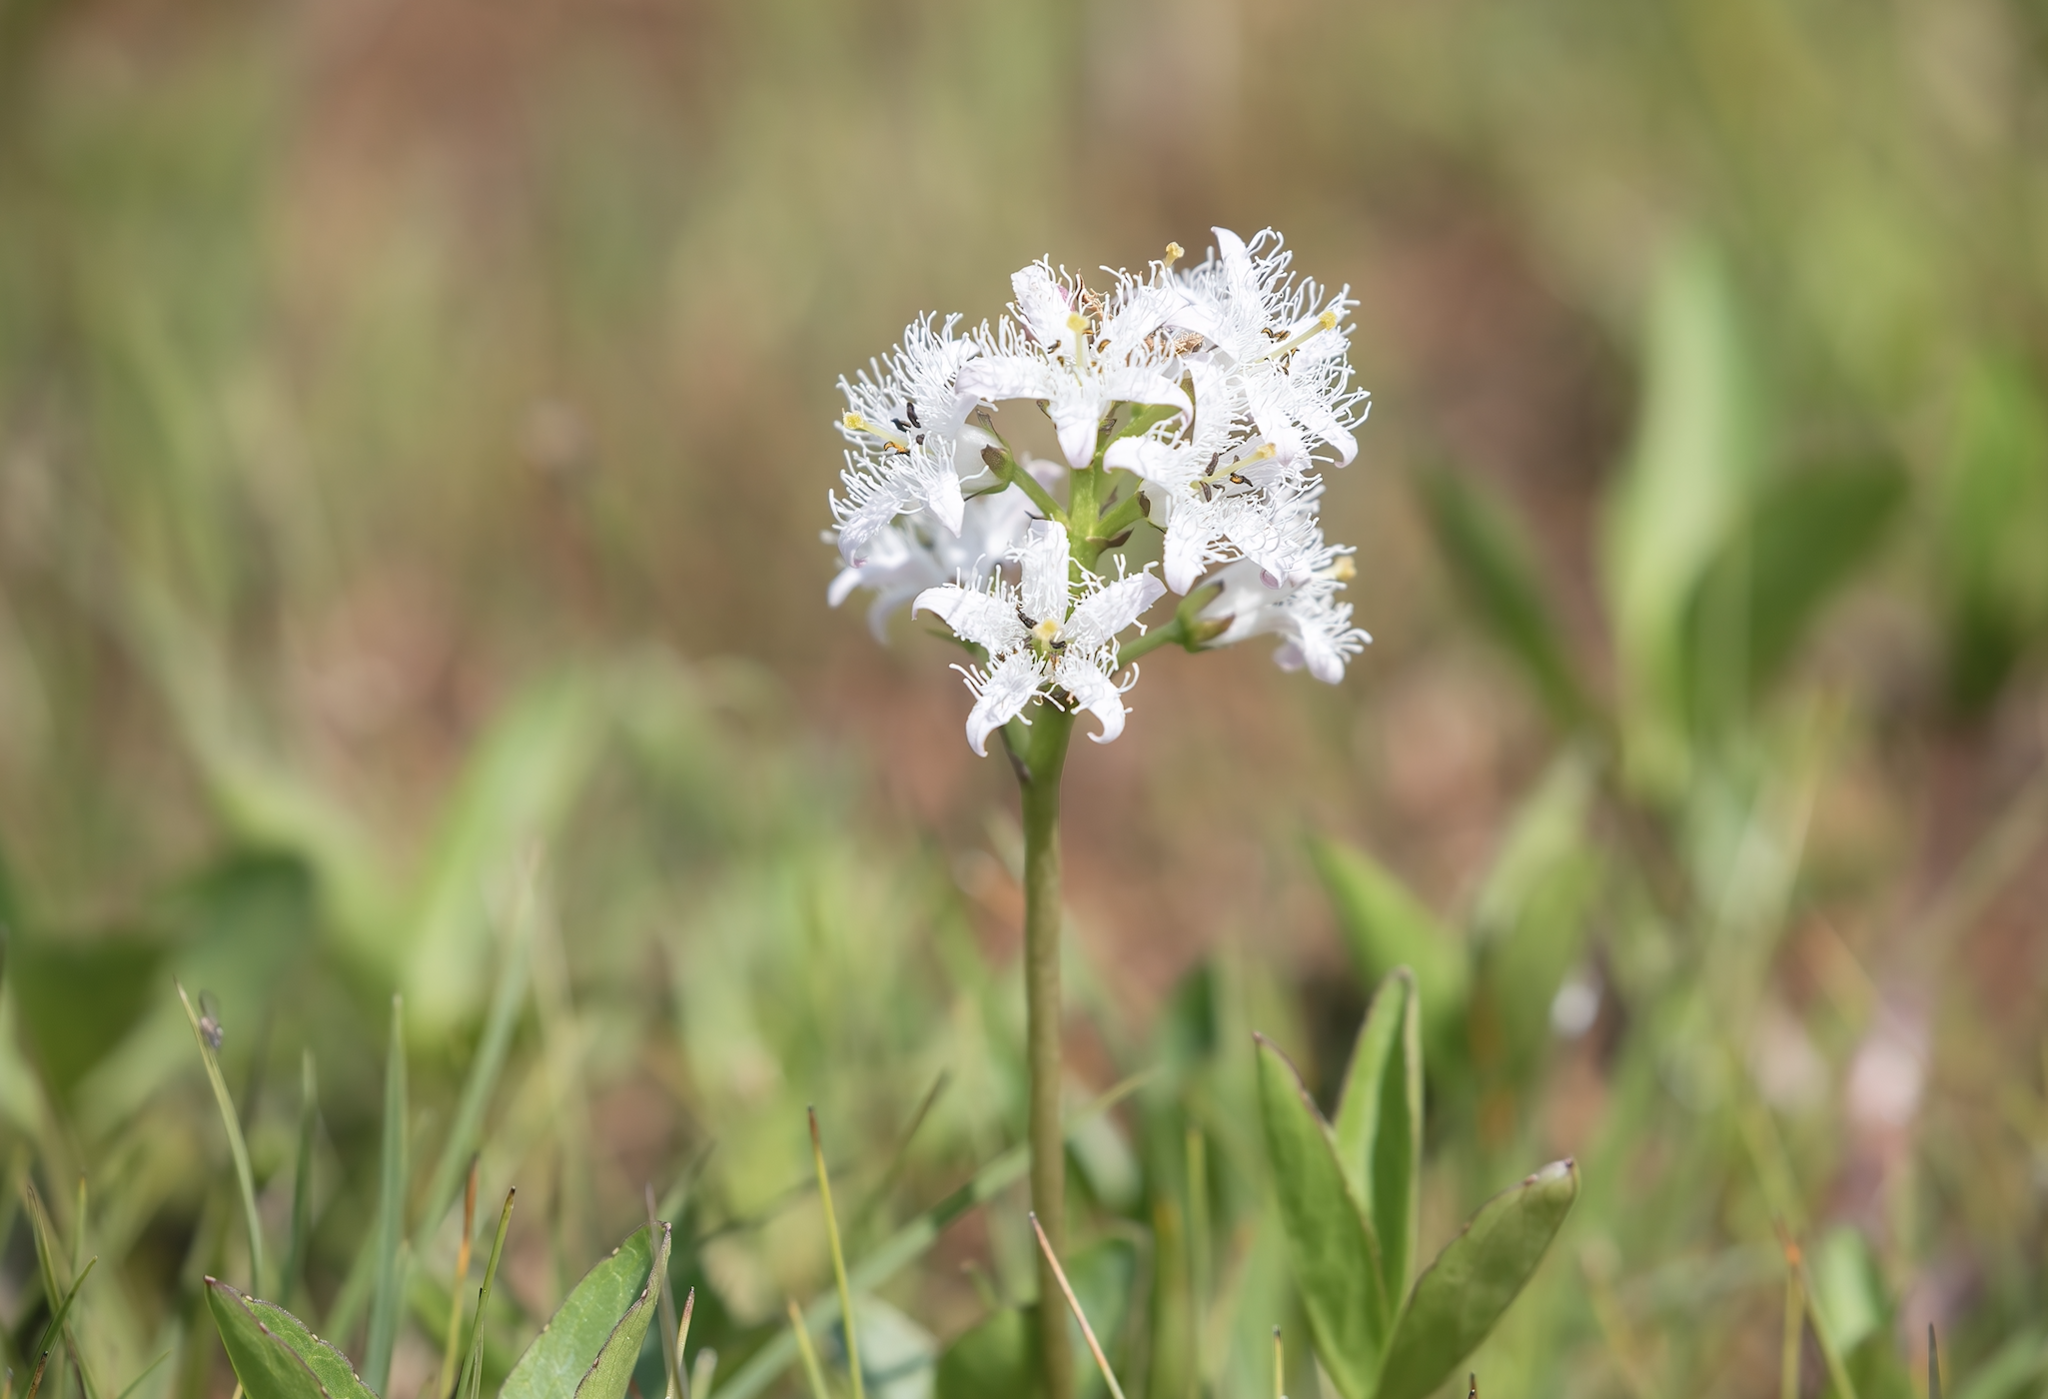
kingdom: Plantae
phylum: Tracheophyta
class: Magnoliopsida
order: Asterales
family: Menyanthaceae
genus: Menyanthes
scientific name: Menyanthes trifoliata
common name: Bogbean
